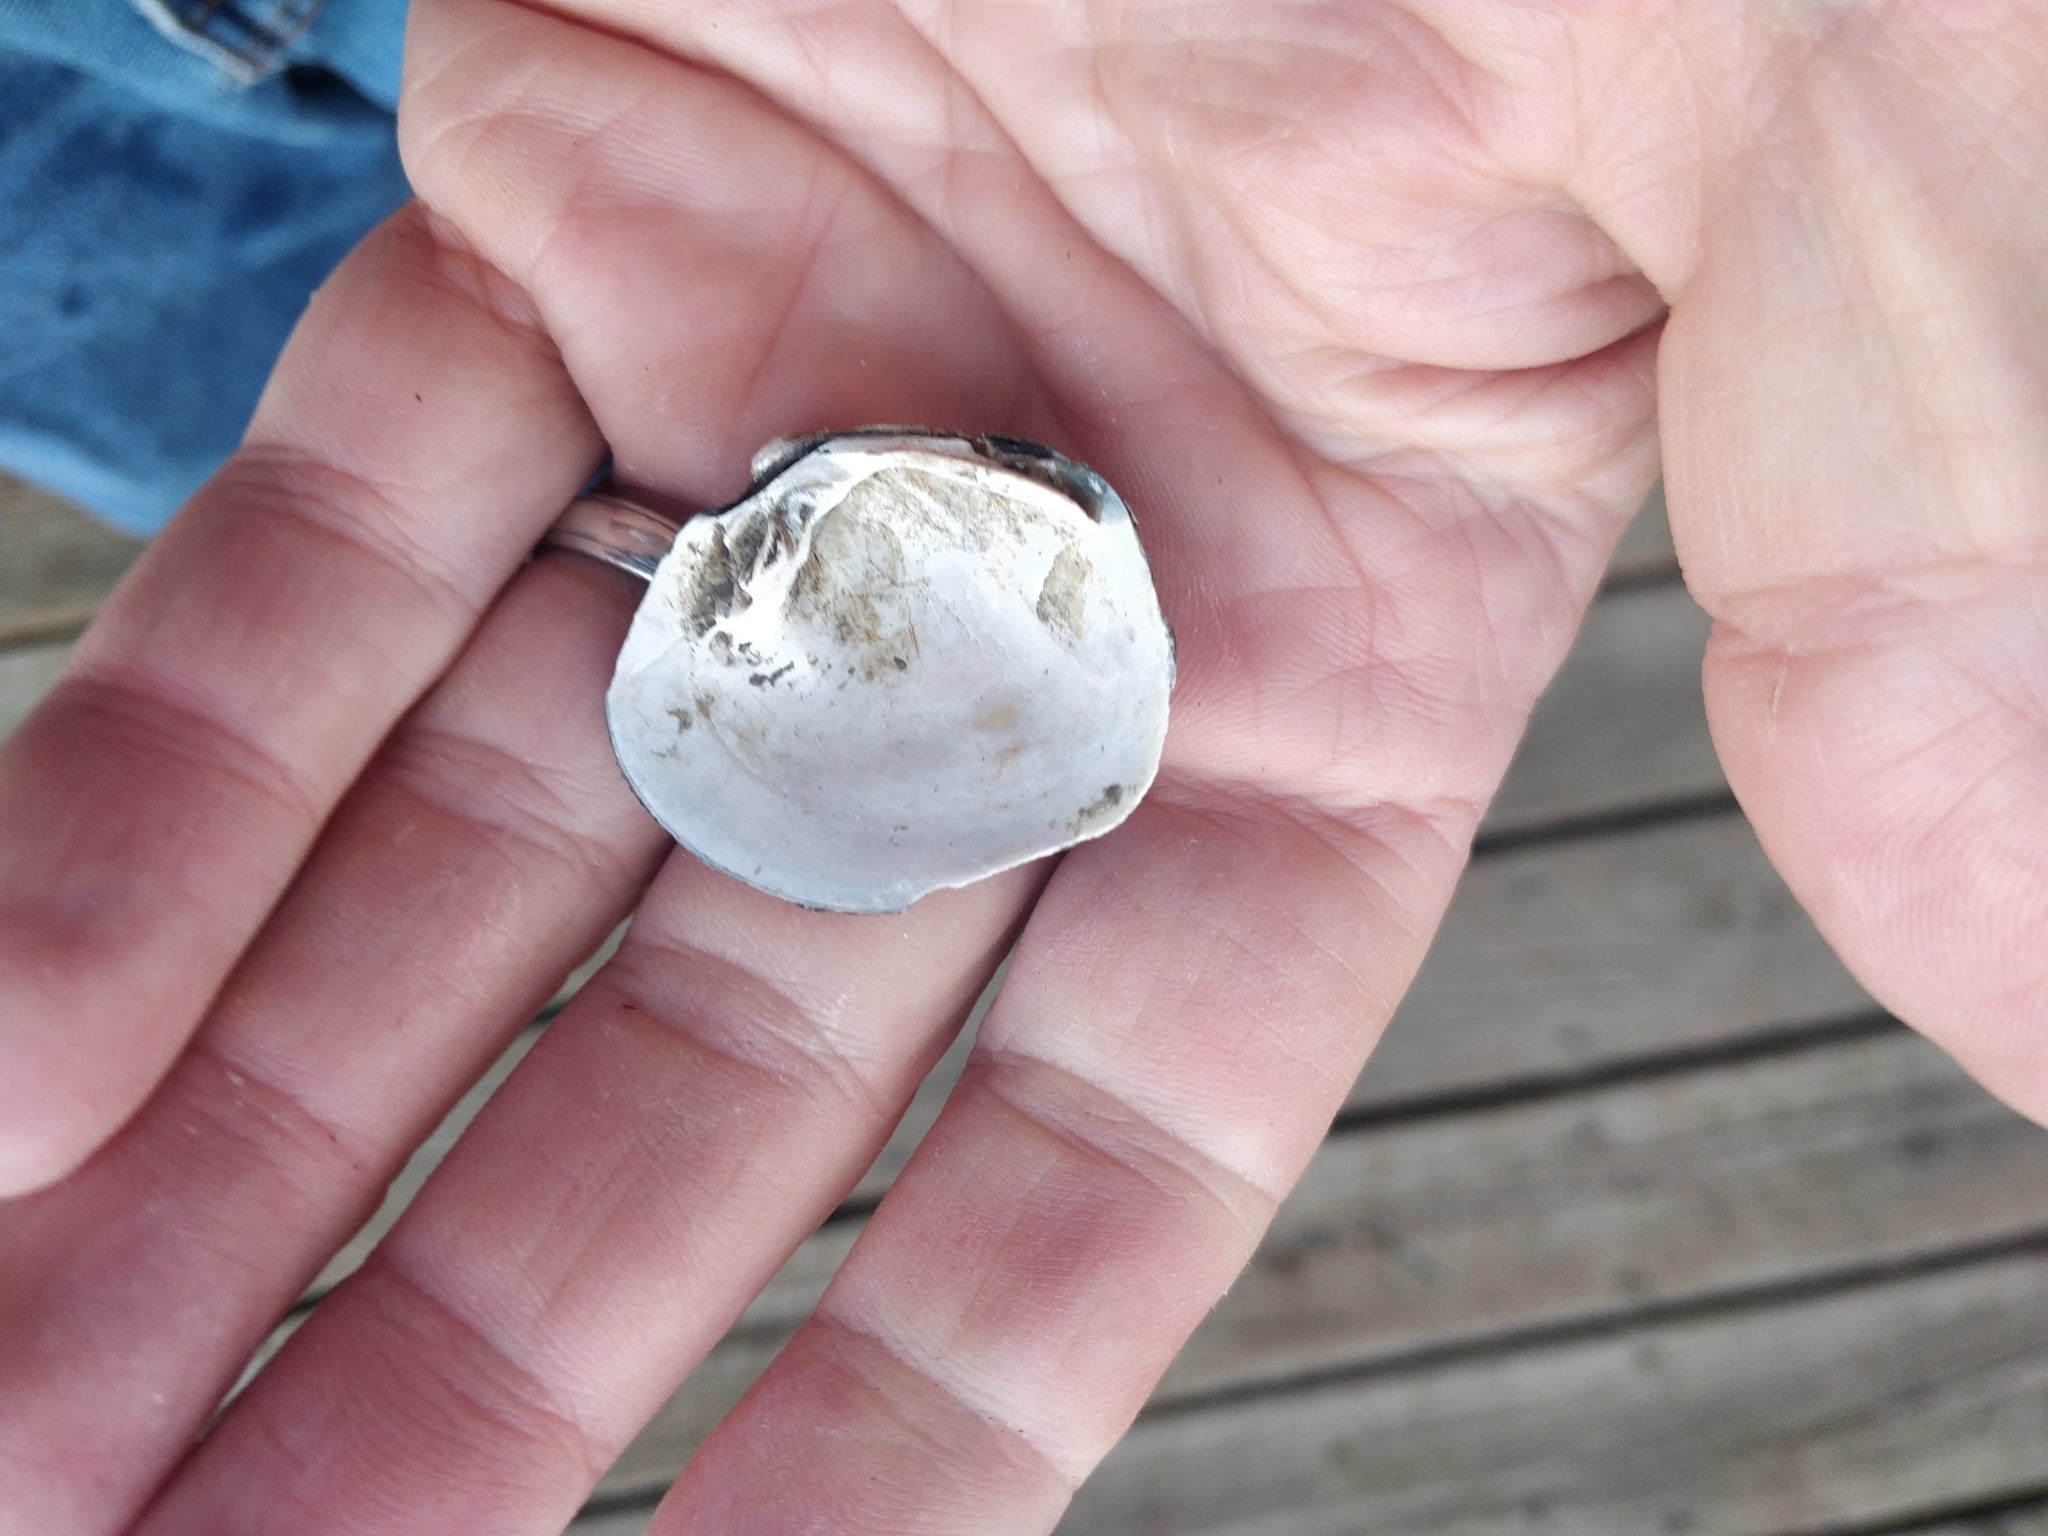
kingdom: Animalia
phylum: Mollusca
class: Bivalvia
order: Unionida
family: Unionidae
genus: Cyclonaias
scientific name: Cyclonaias pustulosa
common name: Pimpleback
